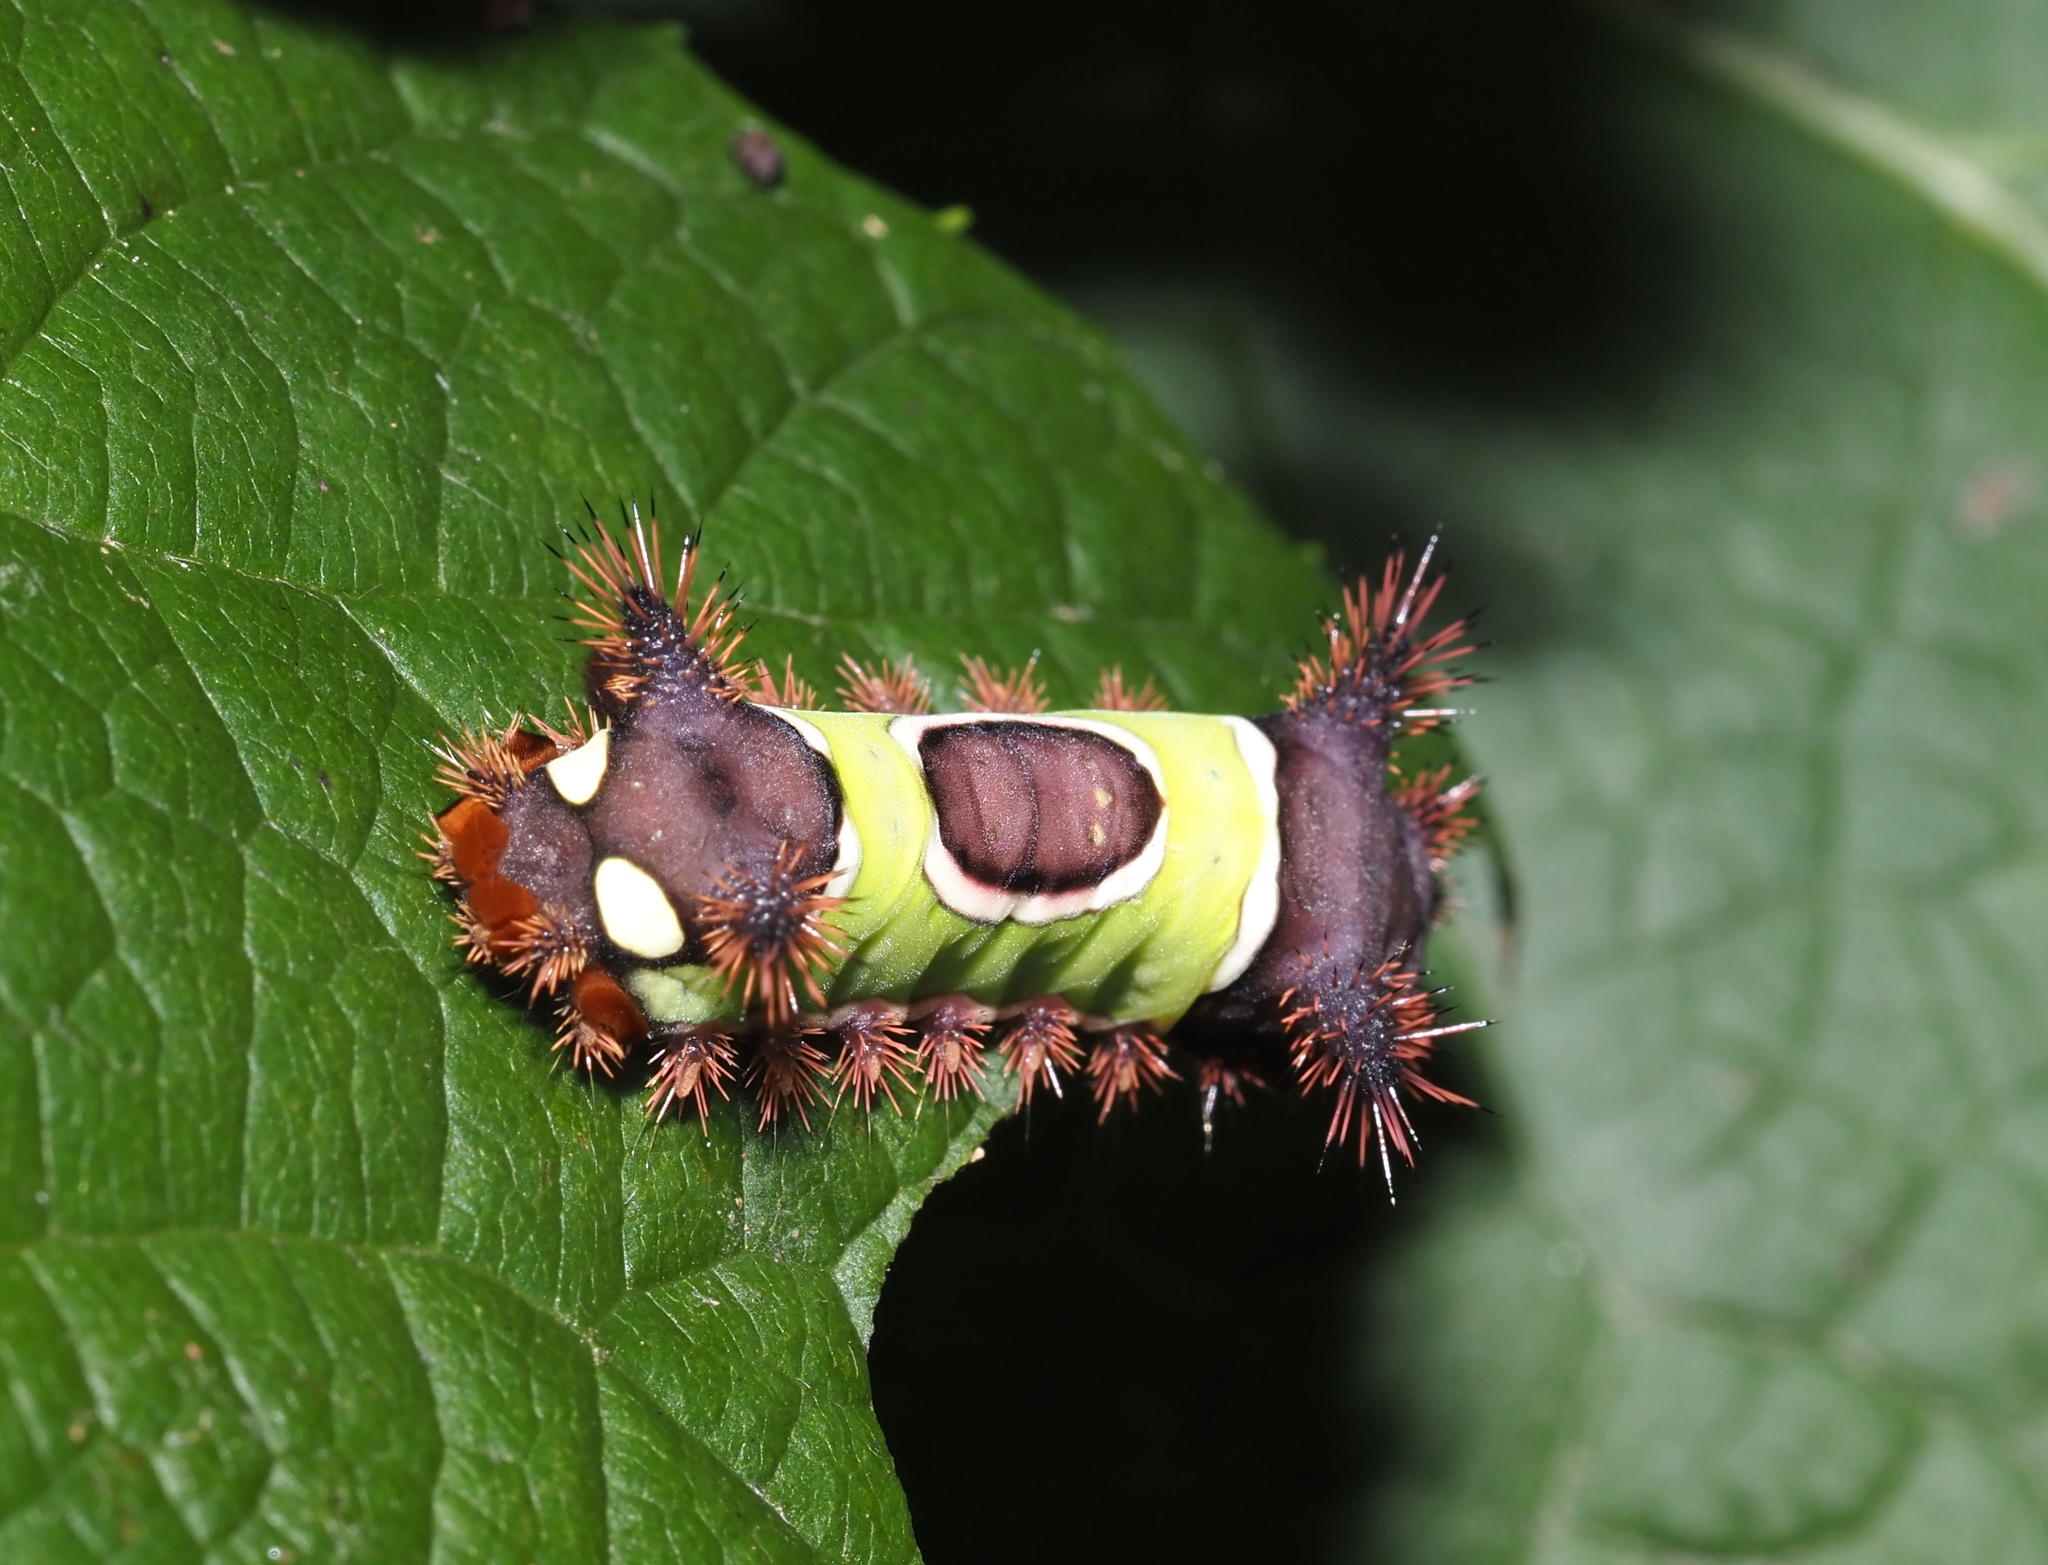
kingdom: Animalia
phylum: Arthropoda
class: Insecta
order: Lepidoptera
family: Limacodidae
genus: Acharia
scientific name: Acharia stimulea
